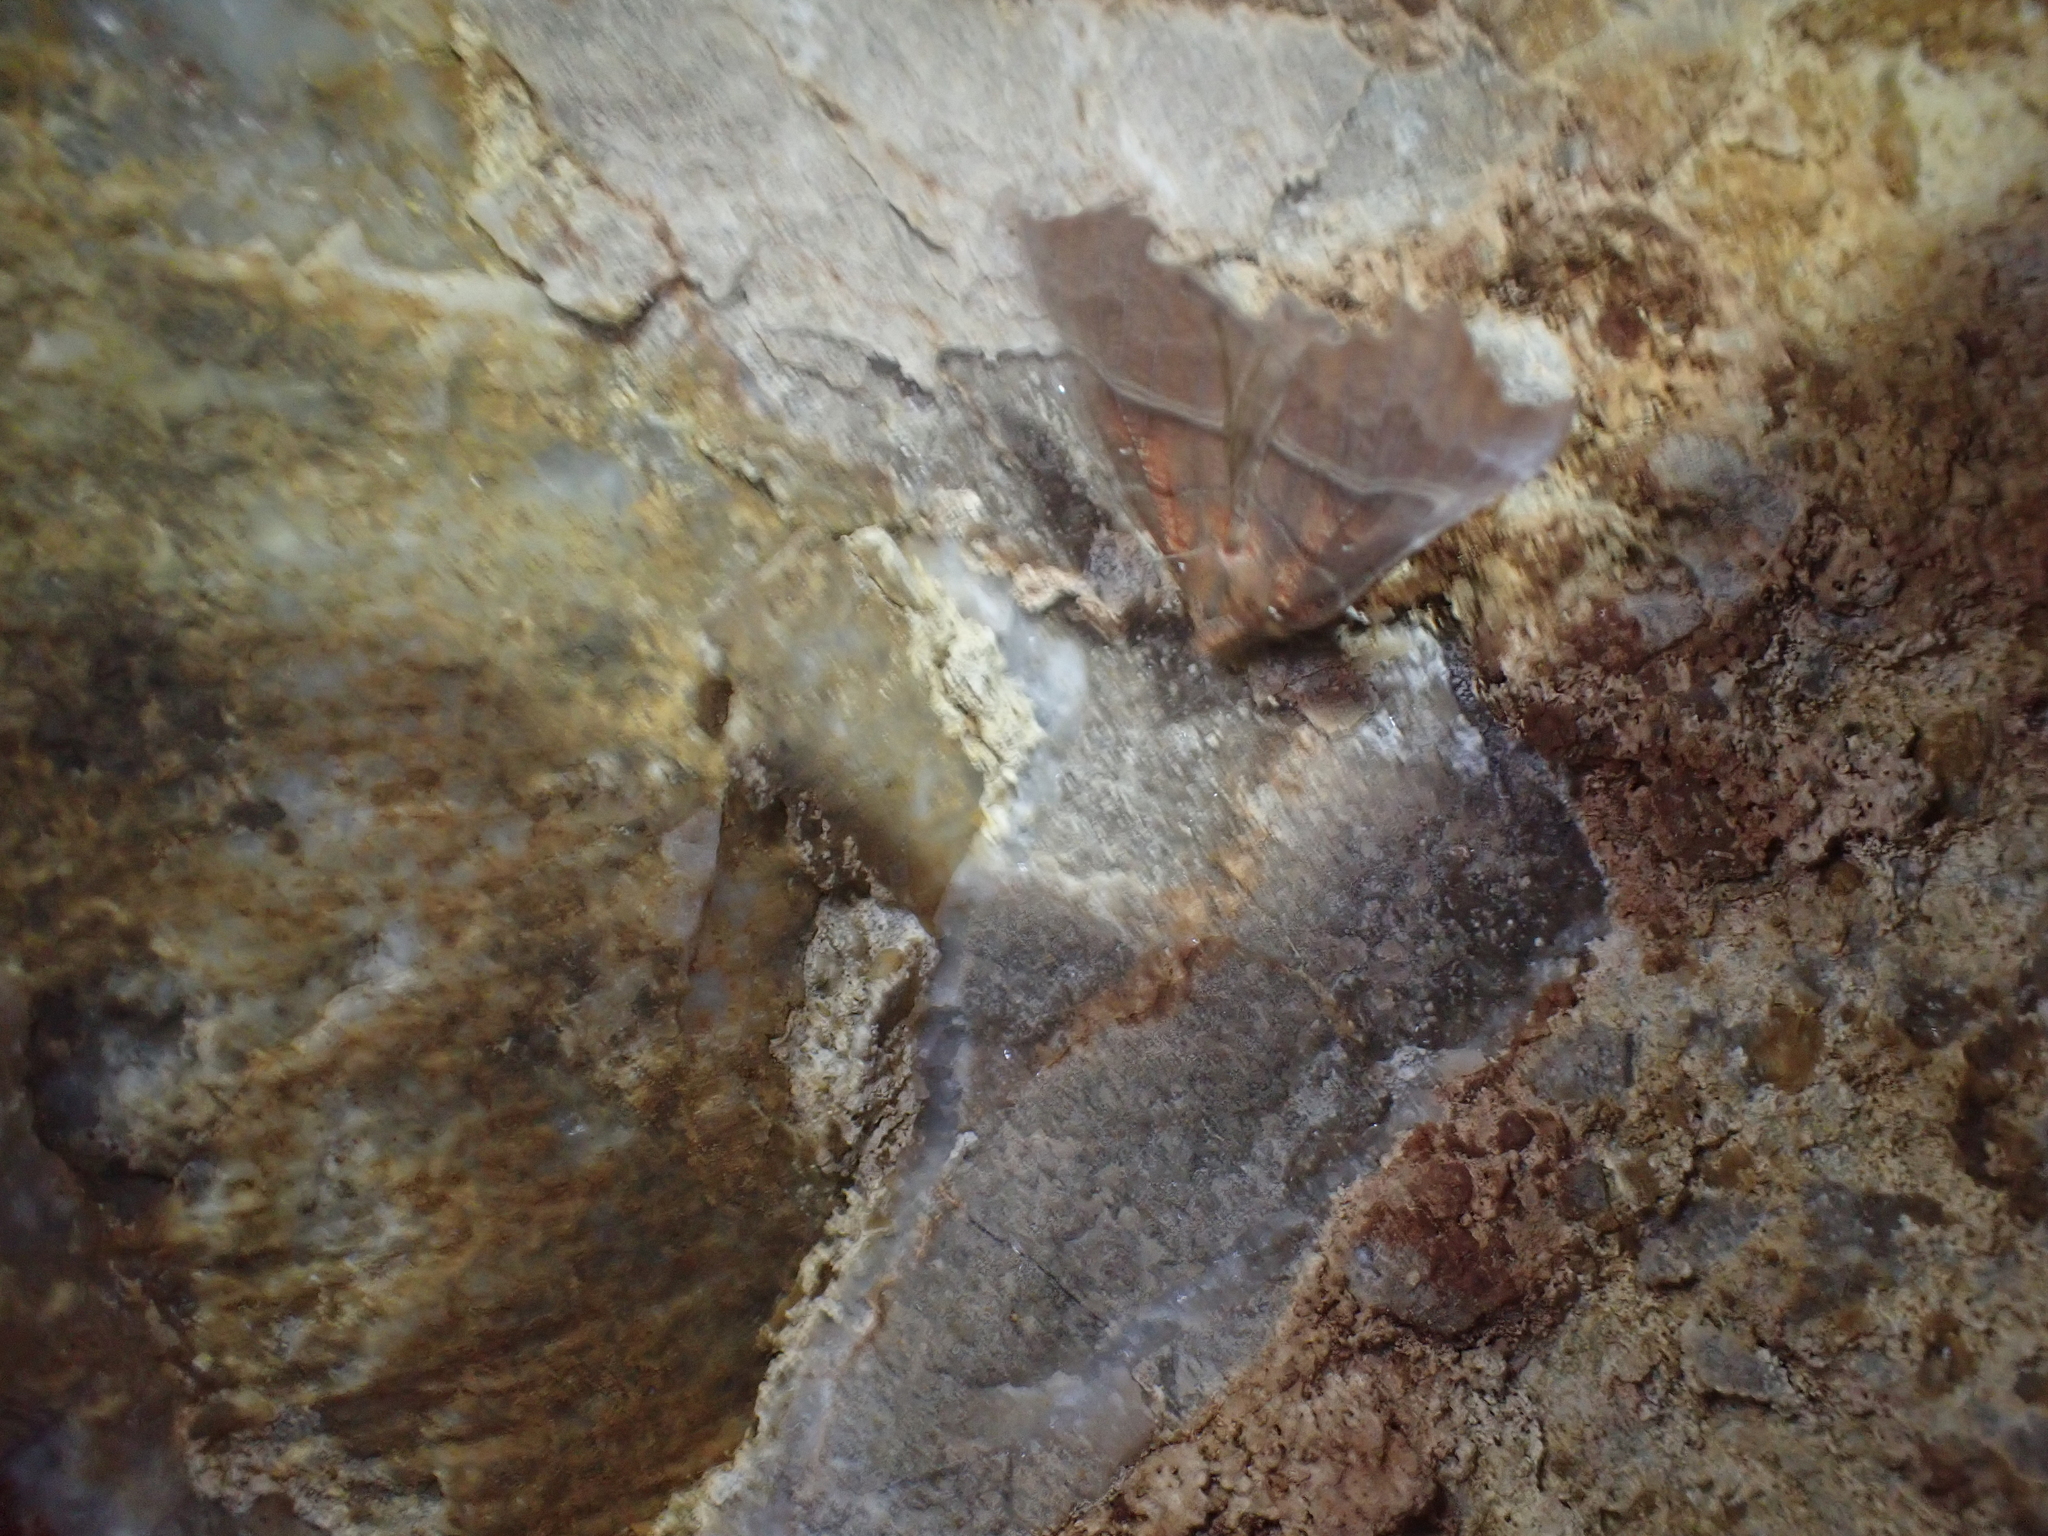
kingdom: Animalia
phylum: Arthropoda
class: Insecta
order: Lepidoptera
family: Erebidae
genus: Scoliopteryx
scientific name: Scoliopteryx libatrix
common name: Herald
